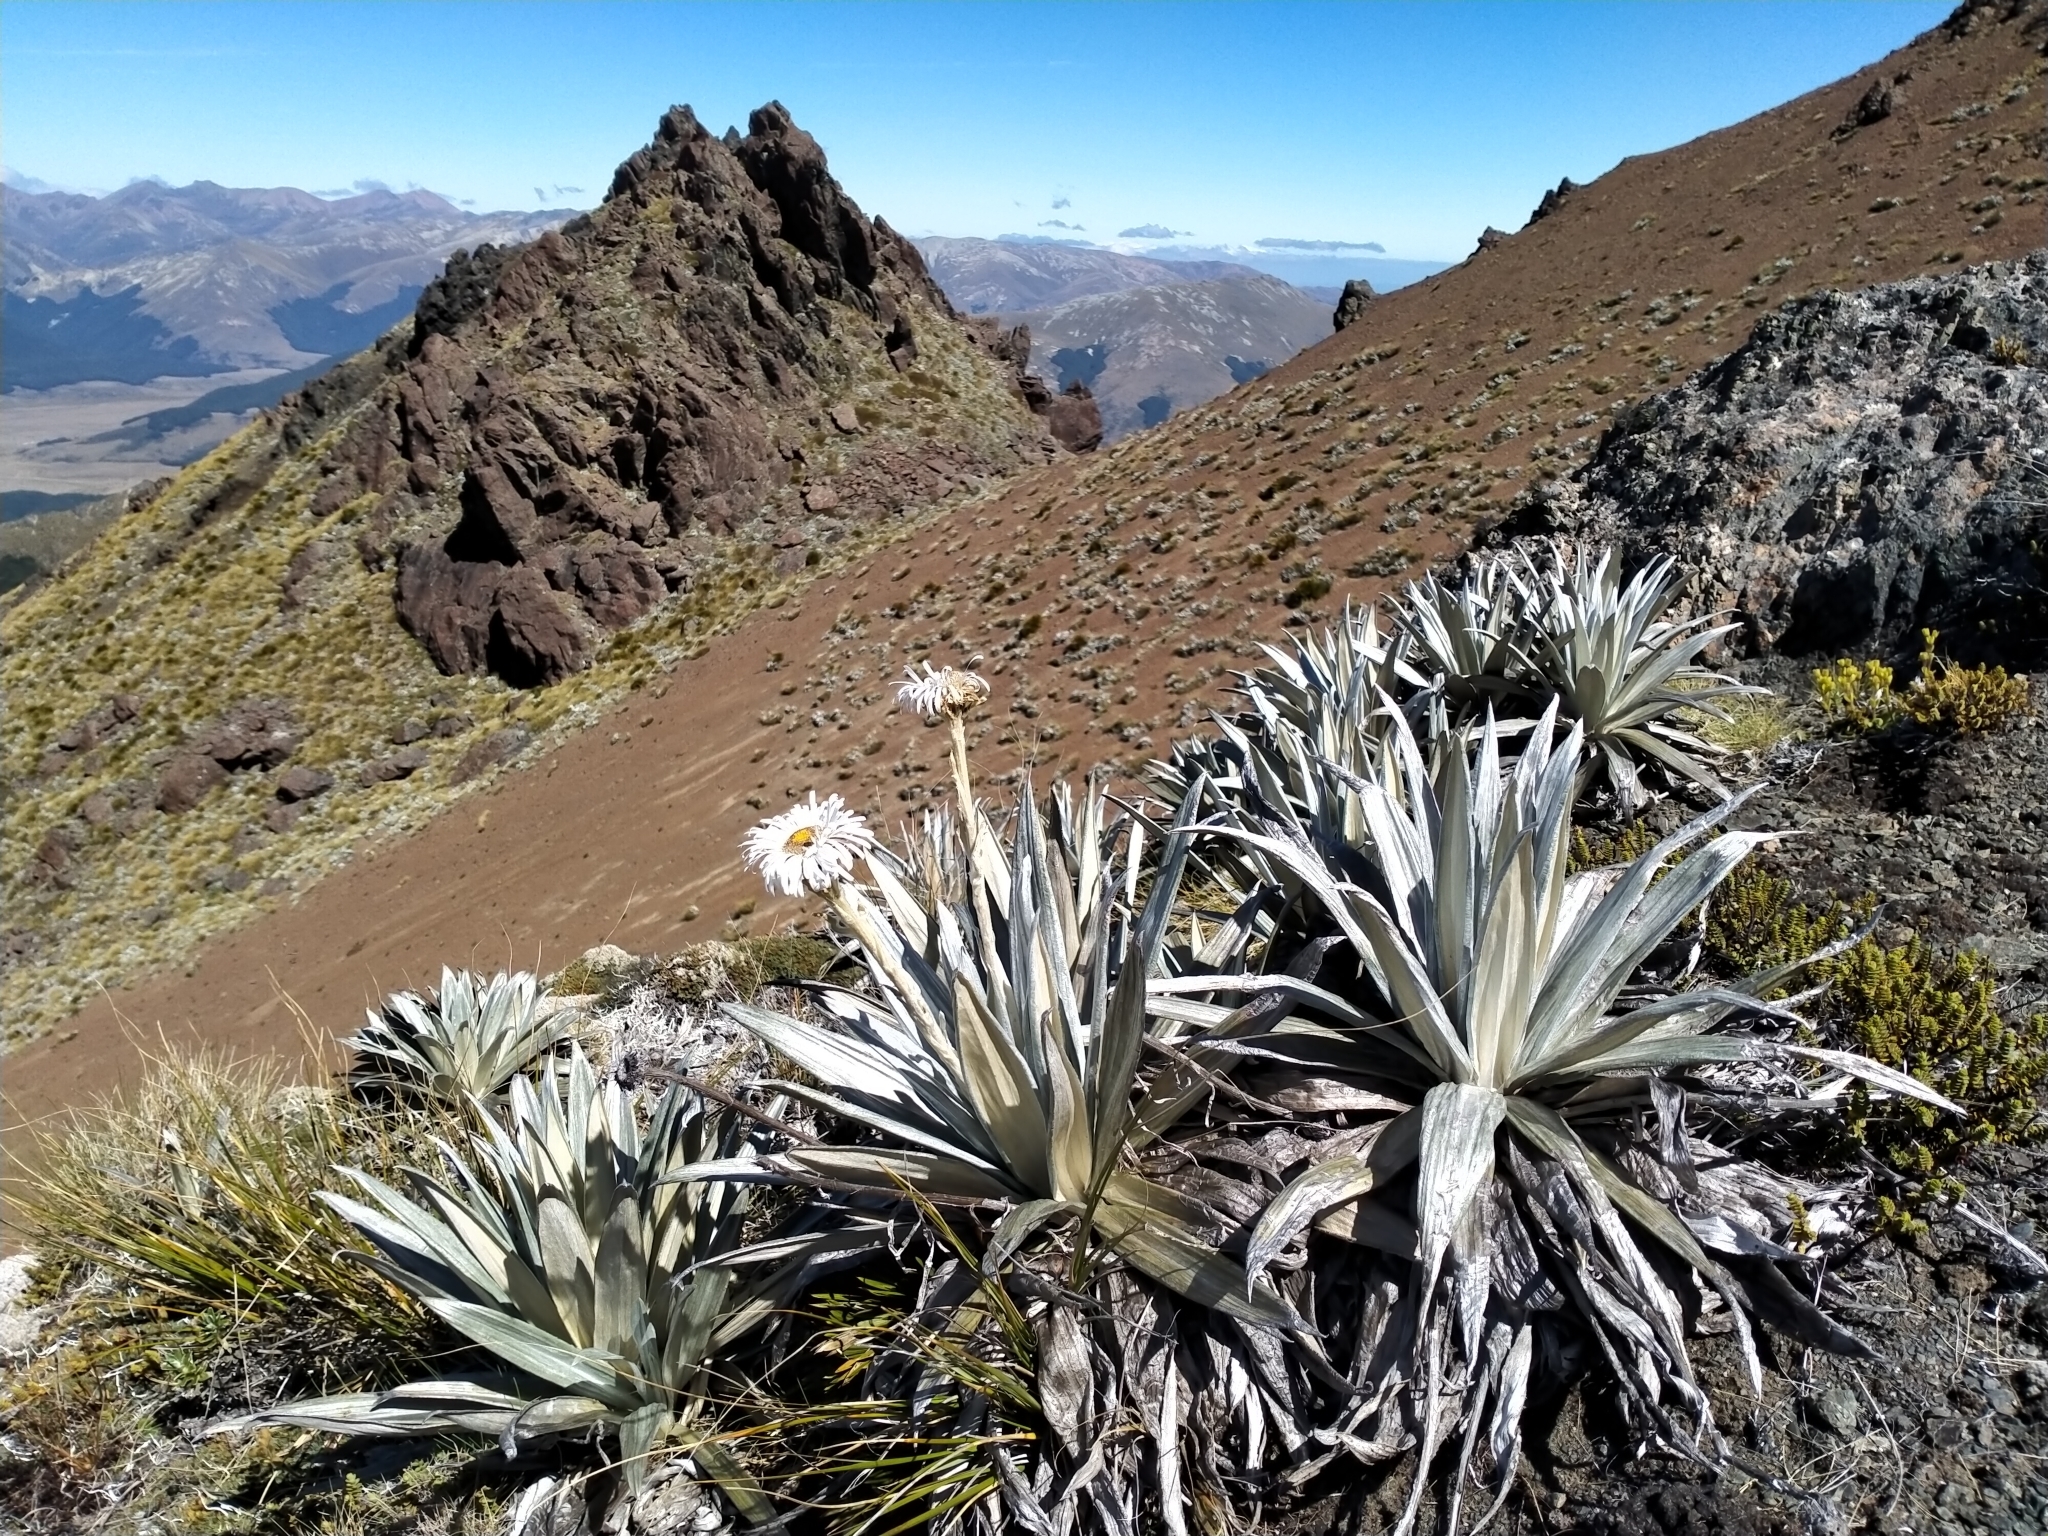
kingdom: Plantae
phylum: Tracheophyta
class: Magnoliopsida
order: Asterales
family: Asteraceae
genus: Celmisia
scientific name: Celmisia semicordata
